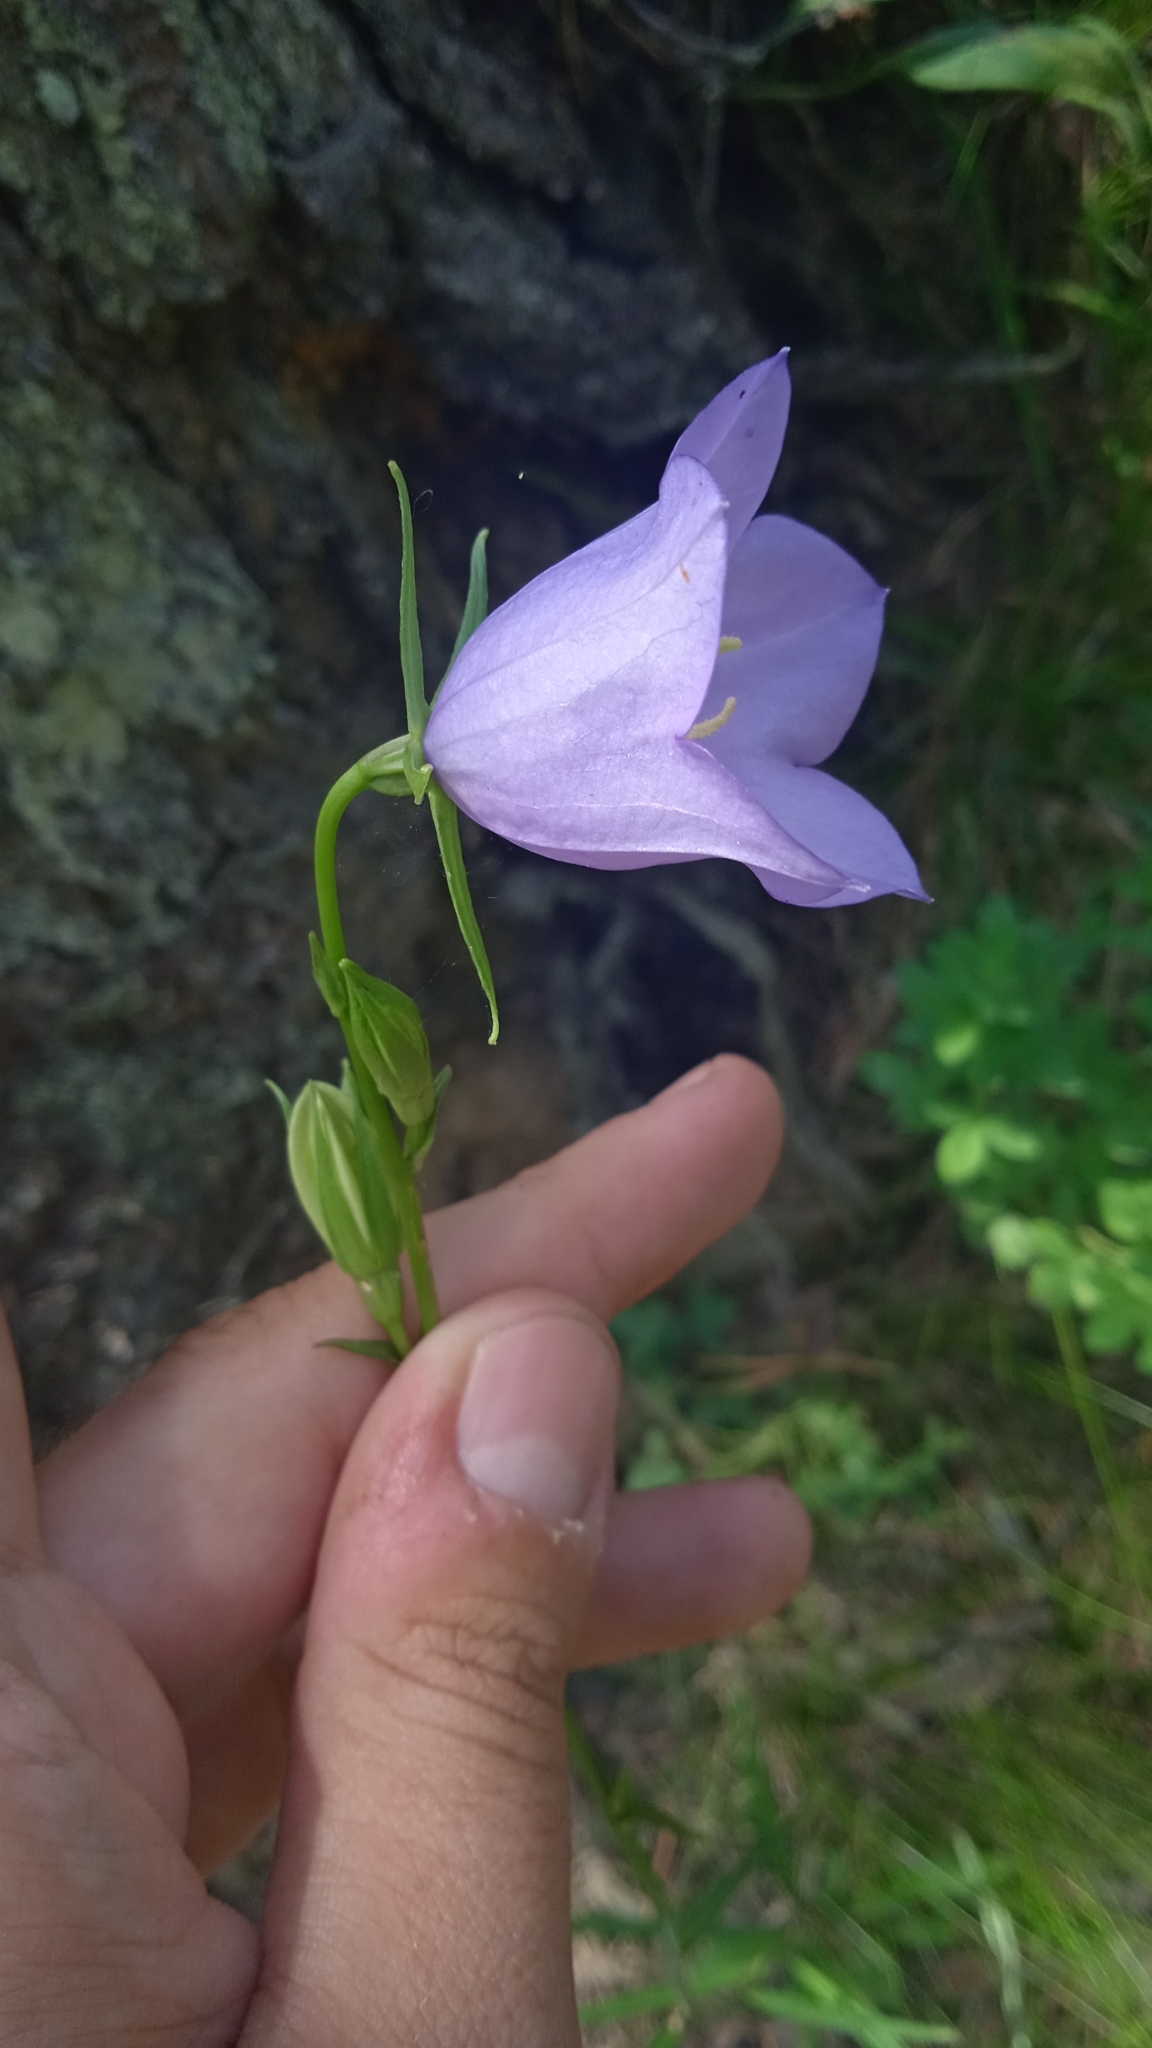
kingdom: Plantae
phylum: Tracheophyta
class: Magnoliopsida
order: Asterales
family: Campanulaceae
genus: Campanula
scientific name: Campanula persicifolia
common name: Peach-leaved bellflower
